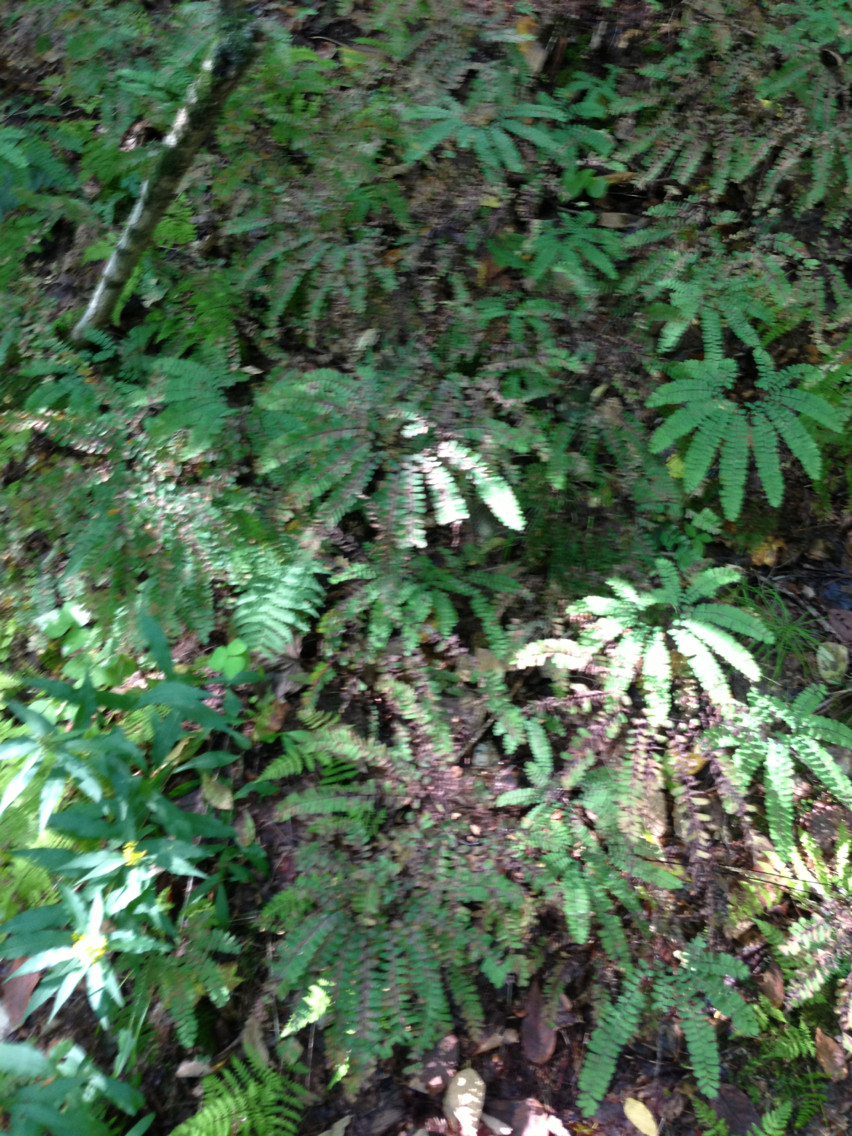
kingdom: Plantae
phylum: Tracheophyta
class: Polypodiopsida
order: Polypodiales
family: Pteridaceae
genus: Adiantum
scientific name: Adiantum pedatum
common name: Five-finger fern
